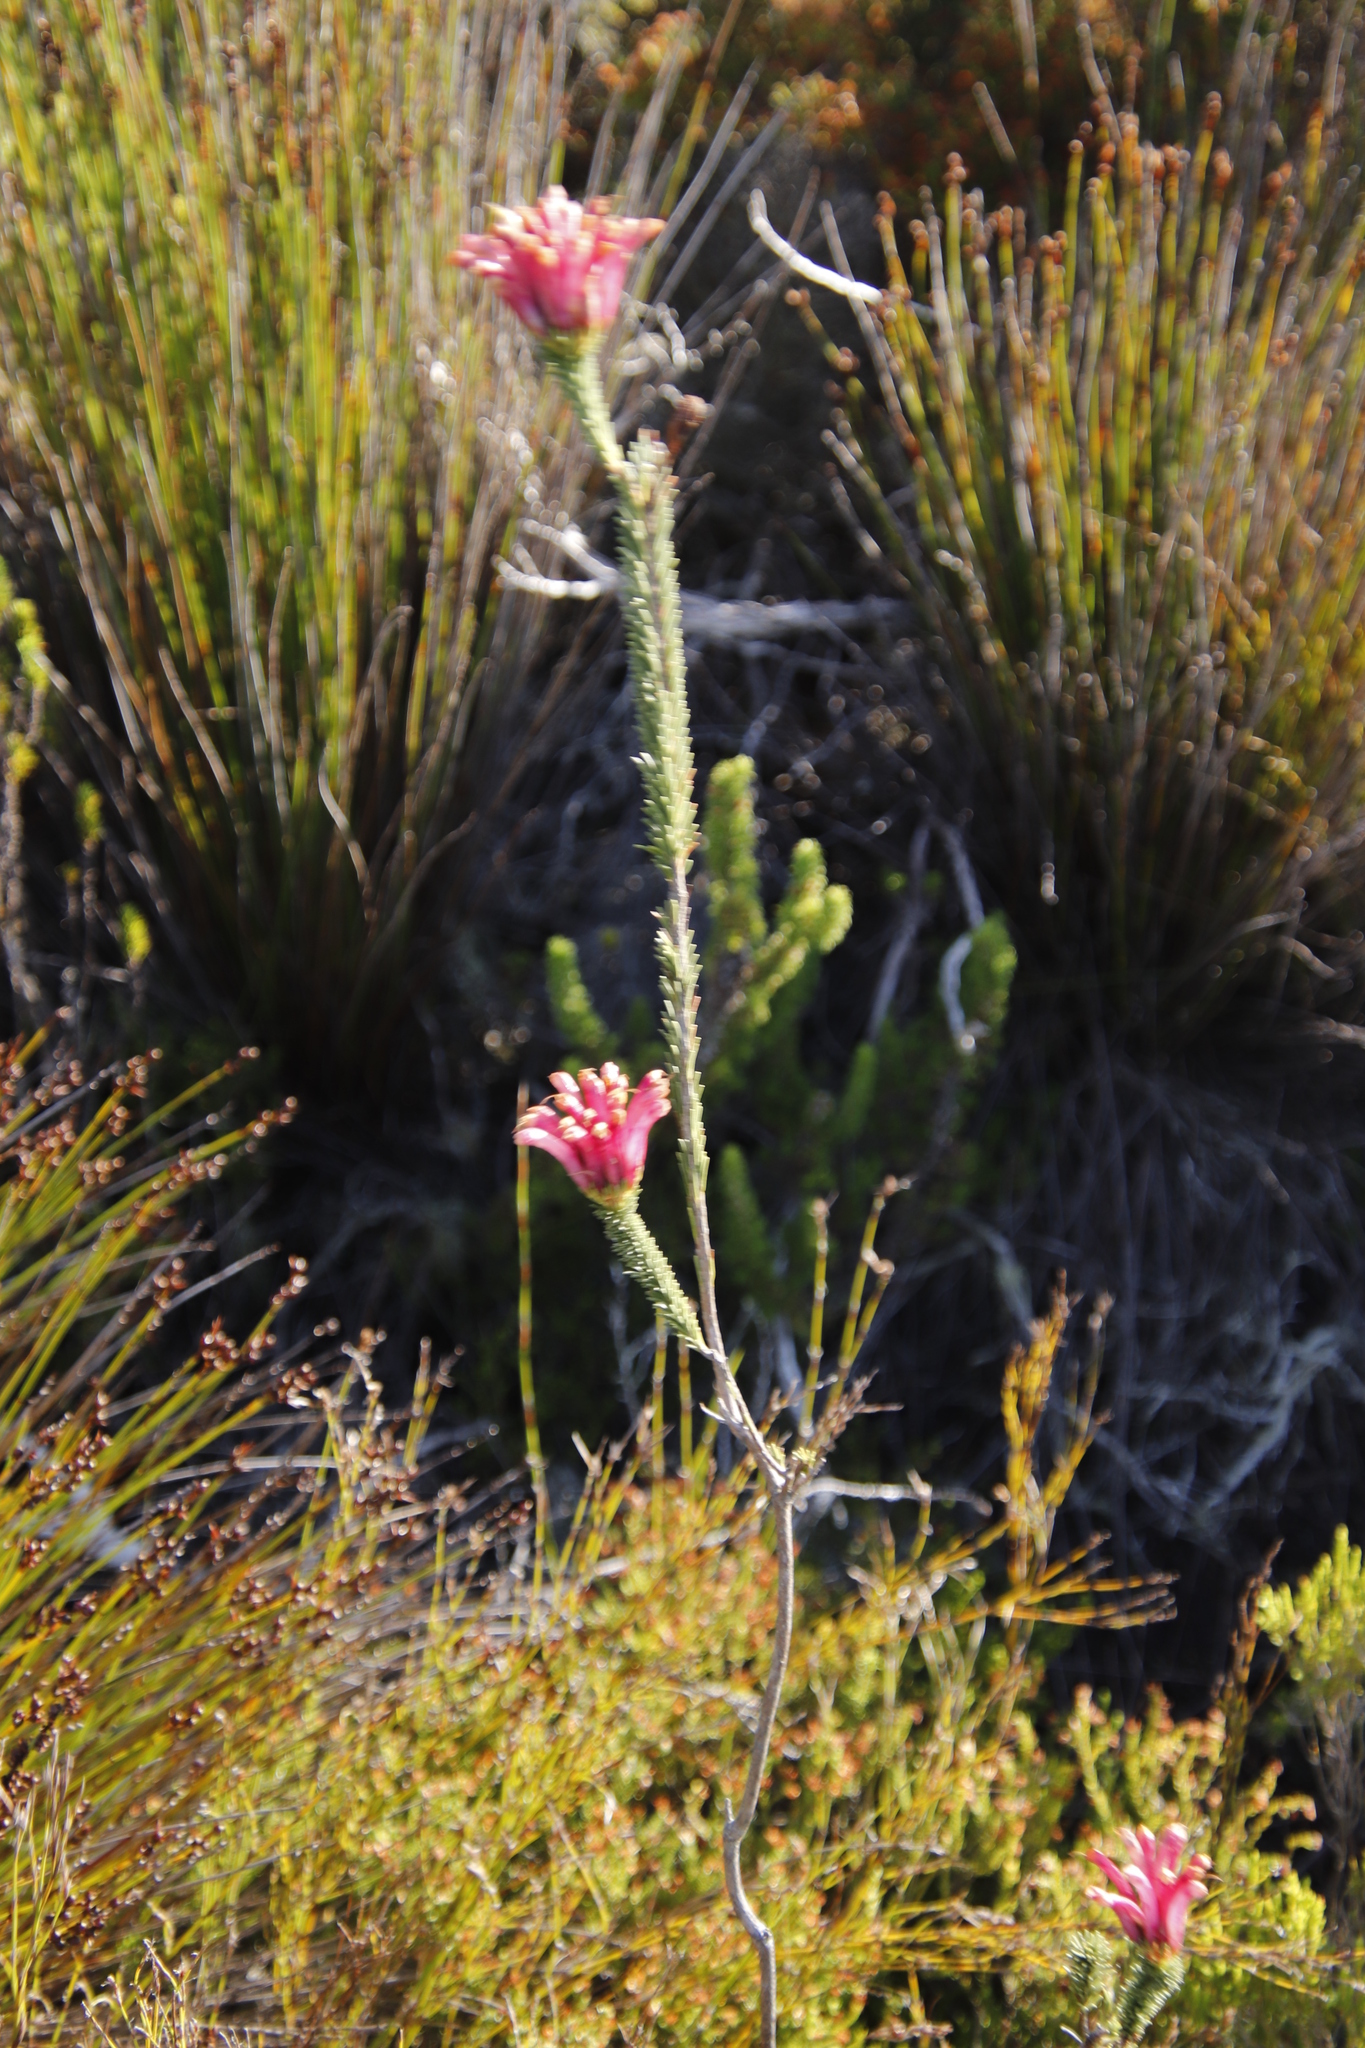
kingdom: Plantae
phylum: Tracheophyta
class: Magnoliopsida
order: Ericales
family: Ericaceae
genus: Erica
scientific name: Erica fascicularis
